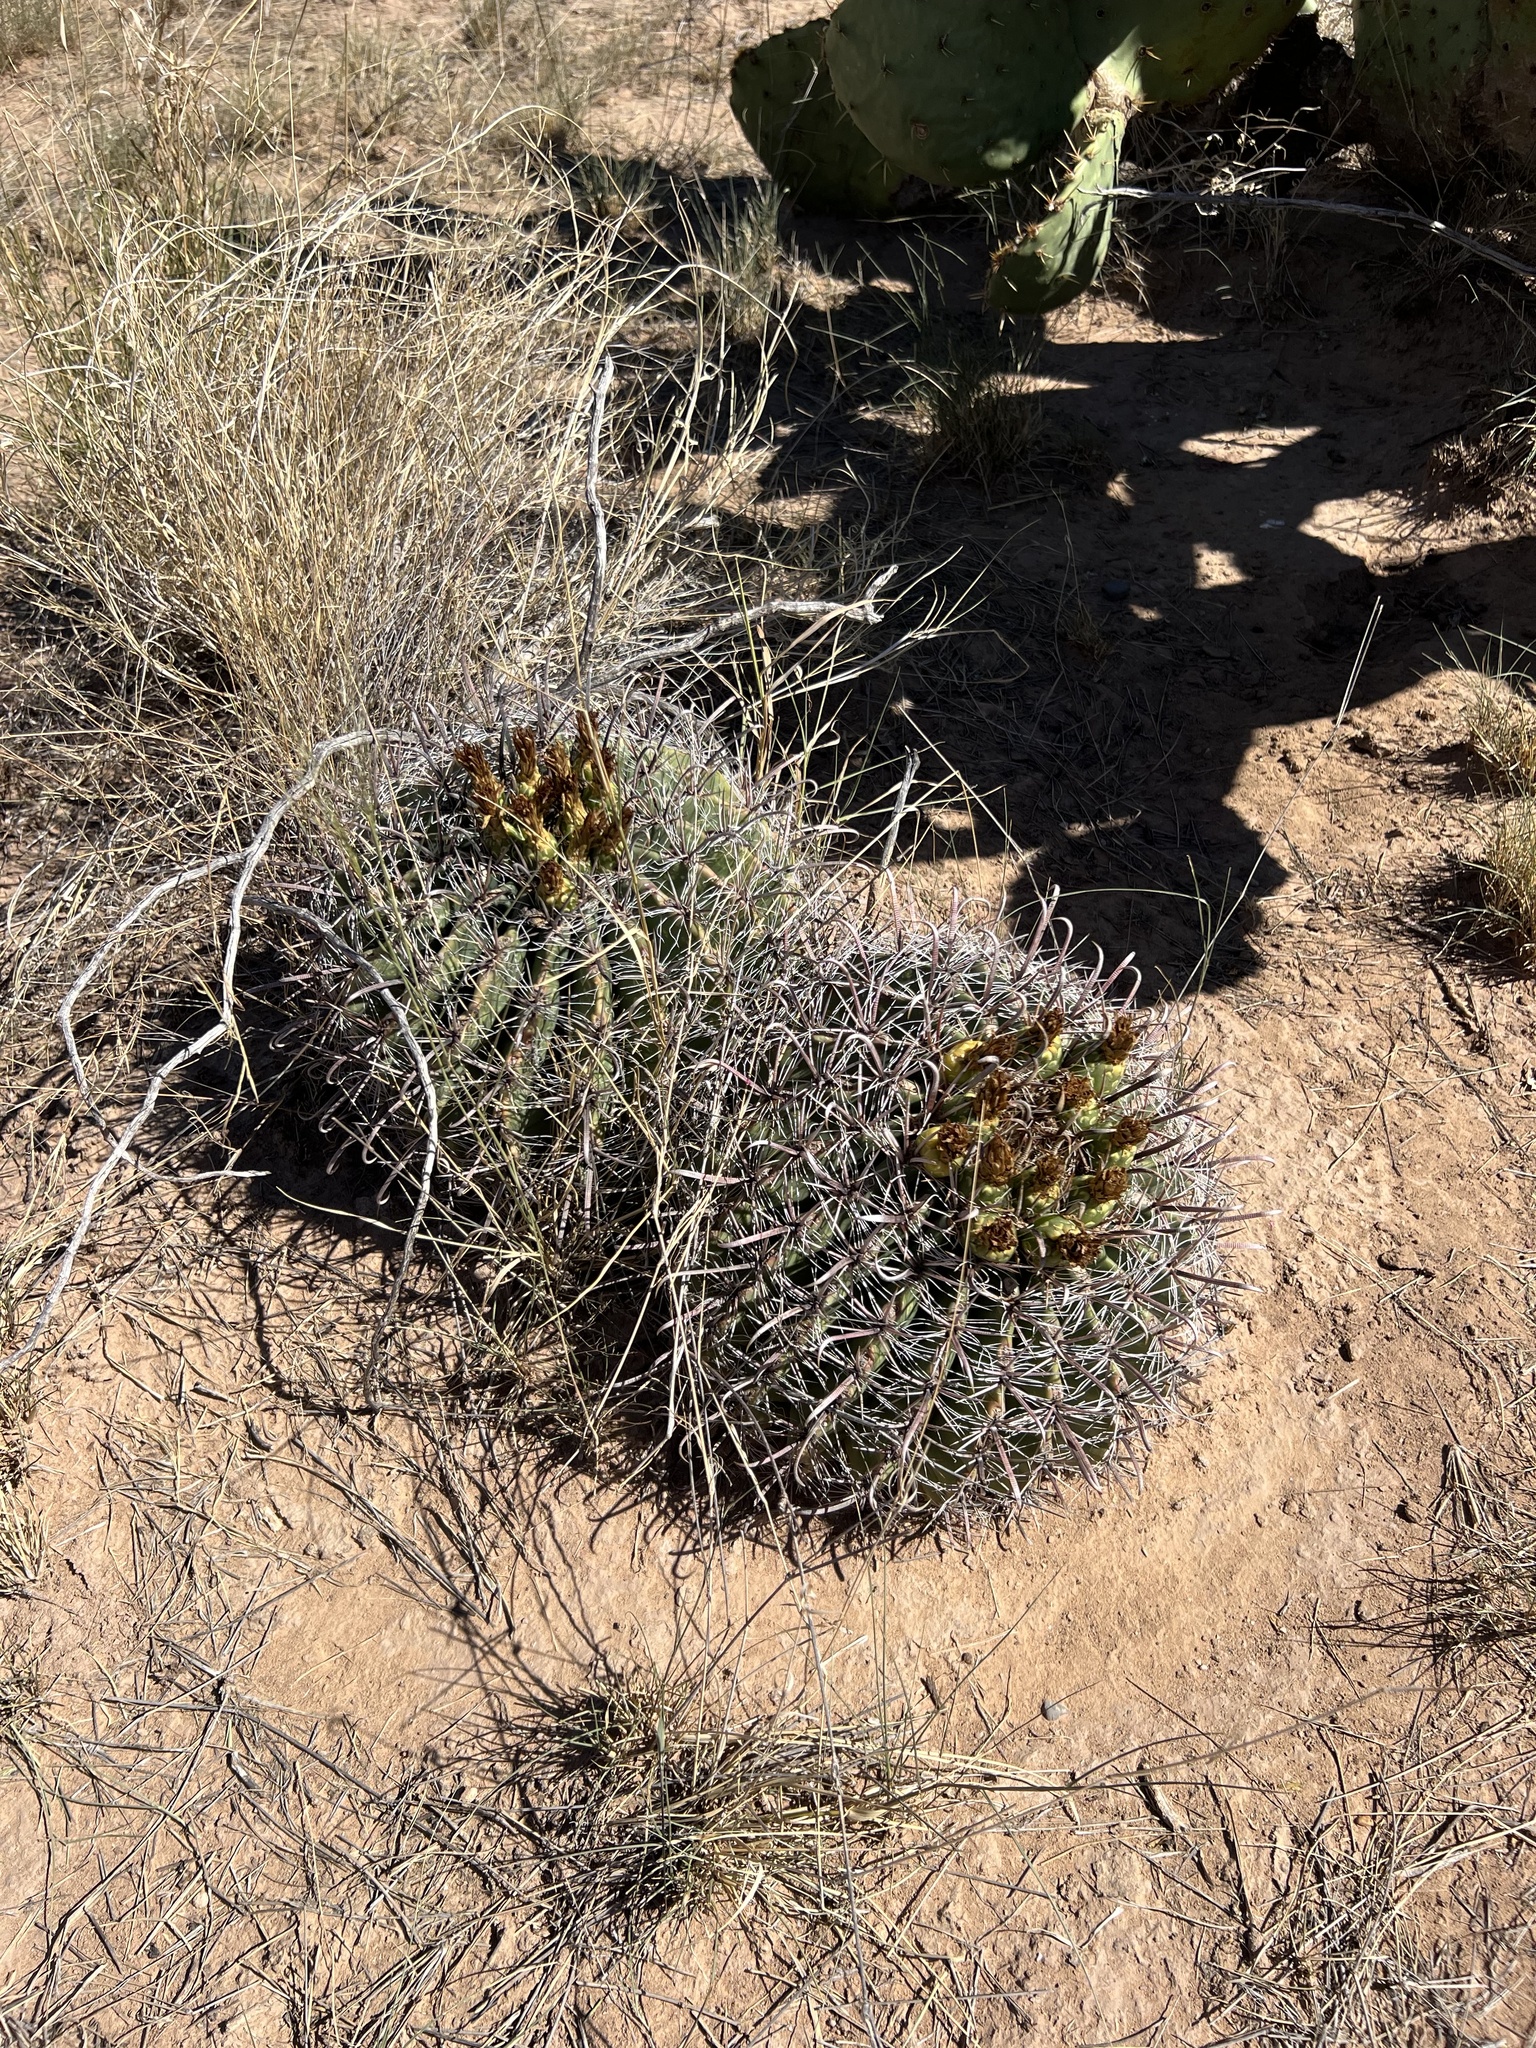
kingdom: Plantae
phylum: Tracheophyta
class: Magnoliopsida
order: Caryophyllales
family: Cactaceae
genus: Ferocactus
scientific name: Ferocactus wislizeni
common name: Candy barrel cactus
